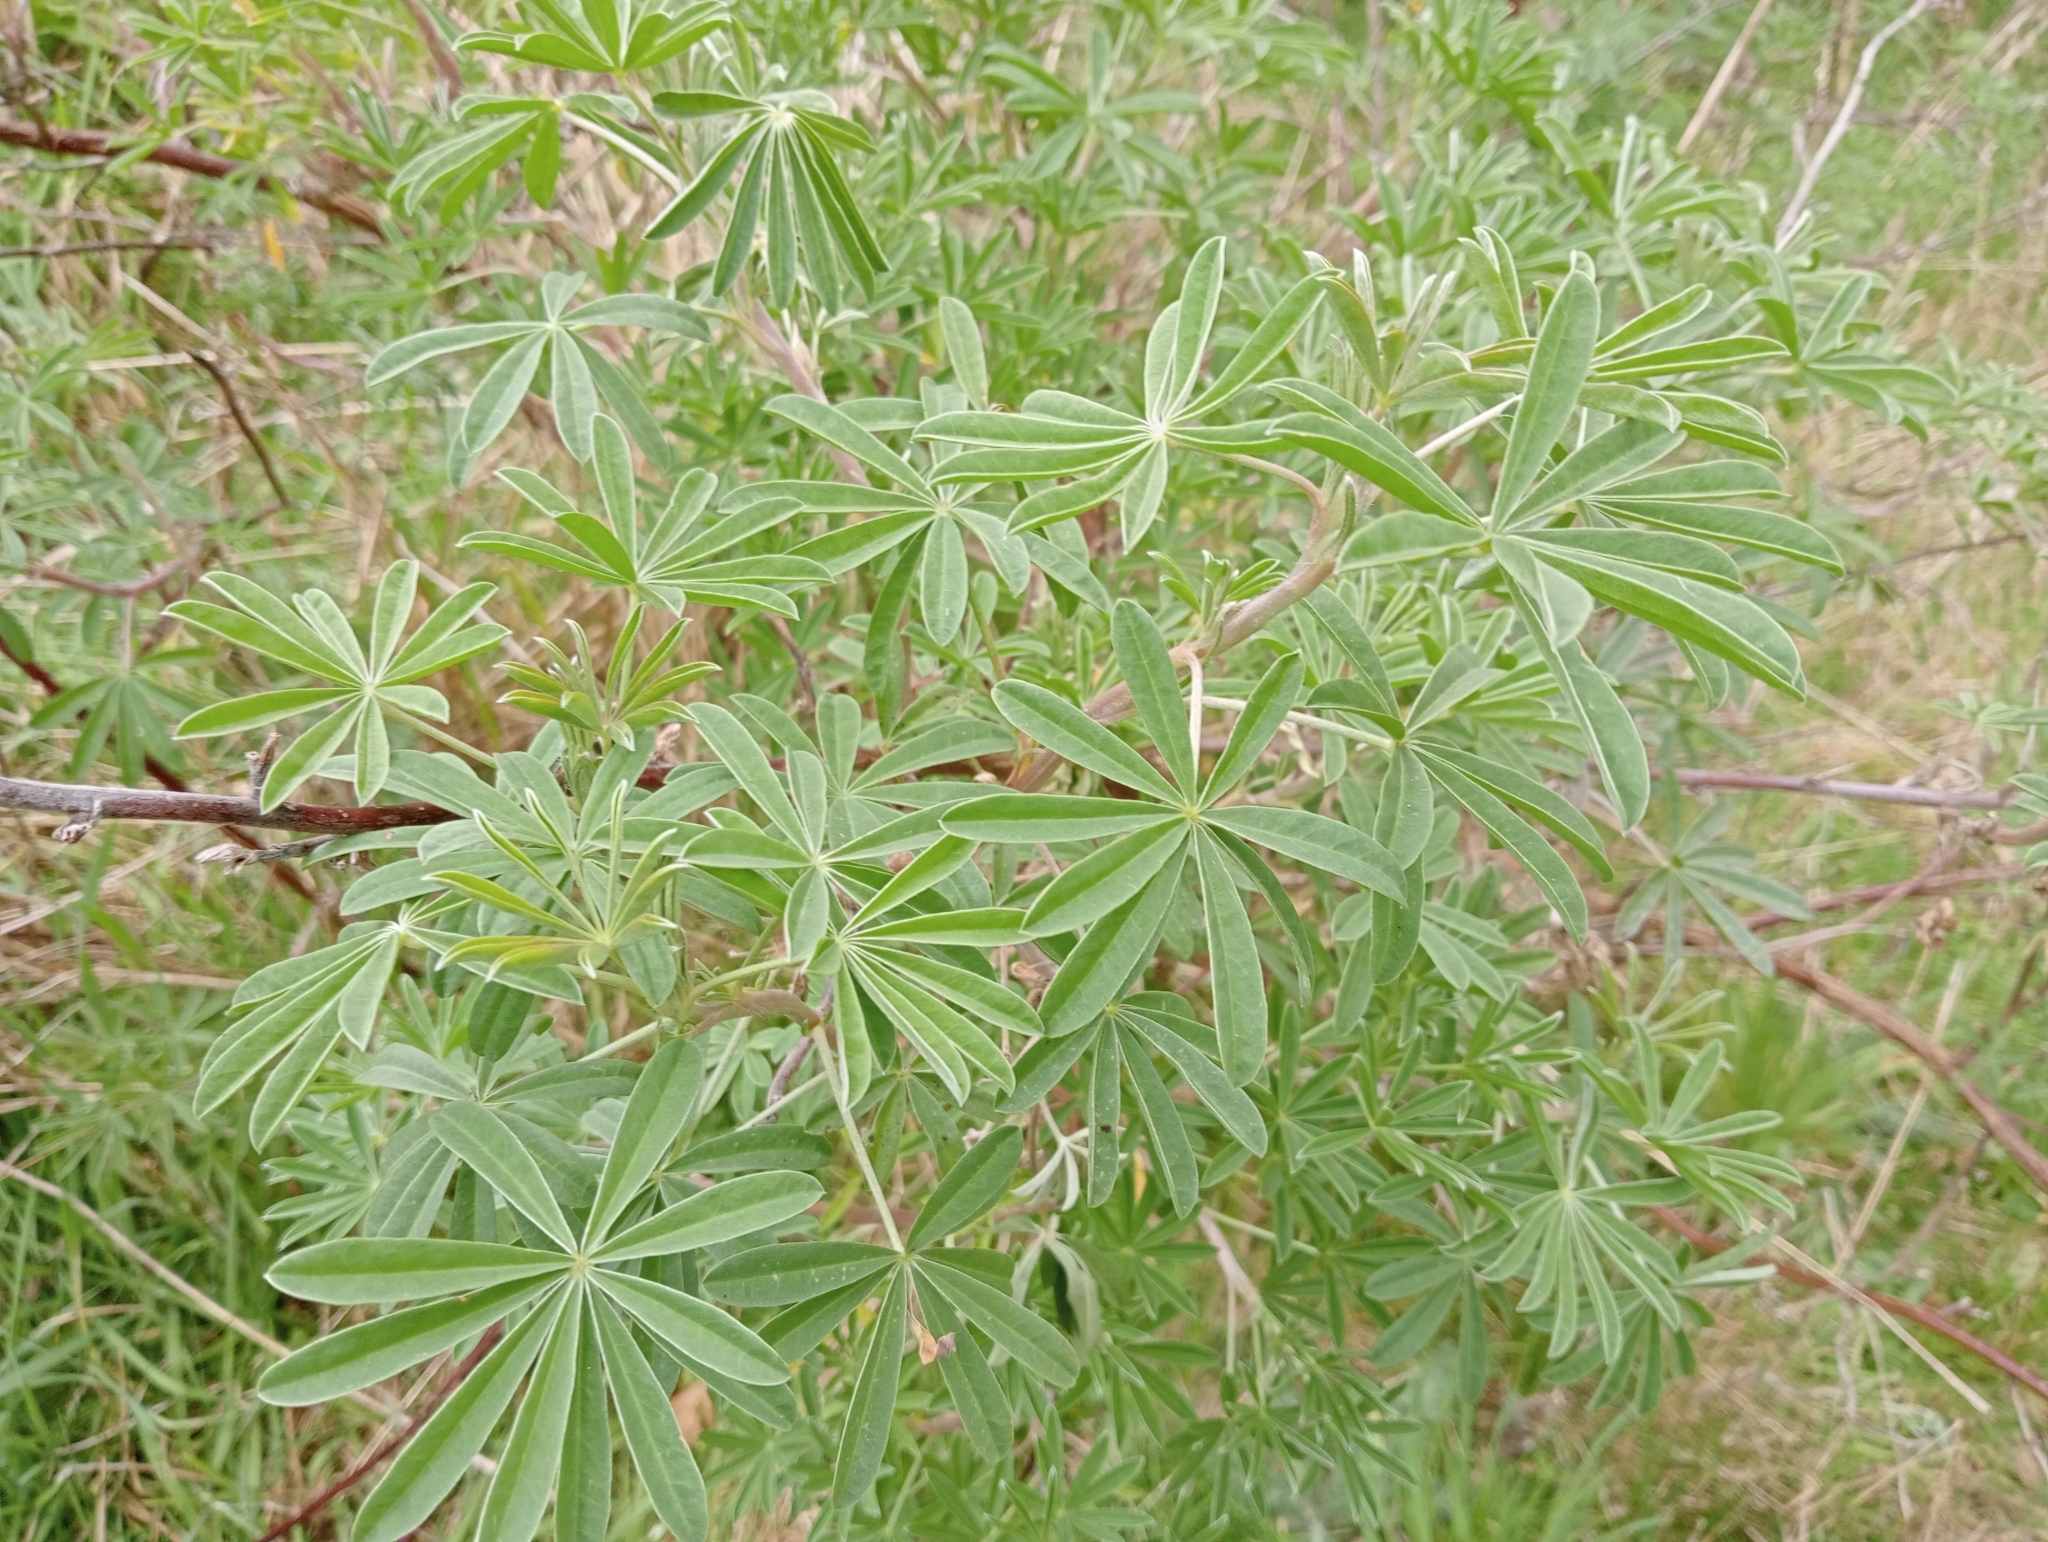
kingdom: Plantae
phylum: Tracheophyta
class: Magnoliopsida
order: Fabales
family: Fabaceae
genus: Lupinus
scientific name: Lupinus arboreus
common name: Yellow bush lupine
